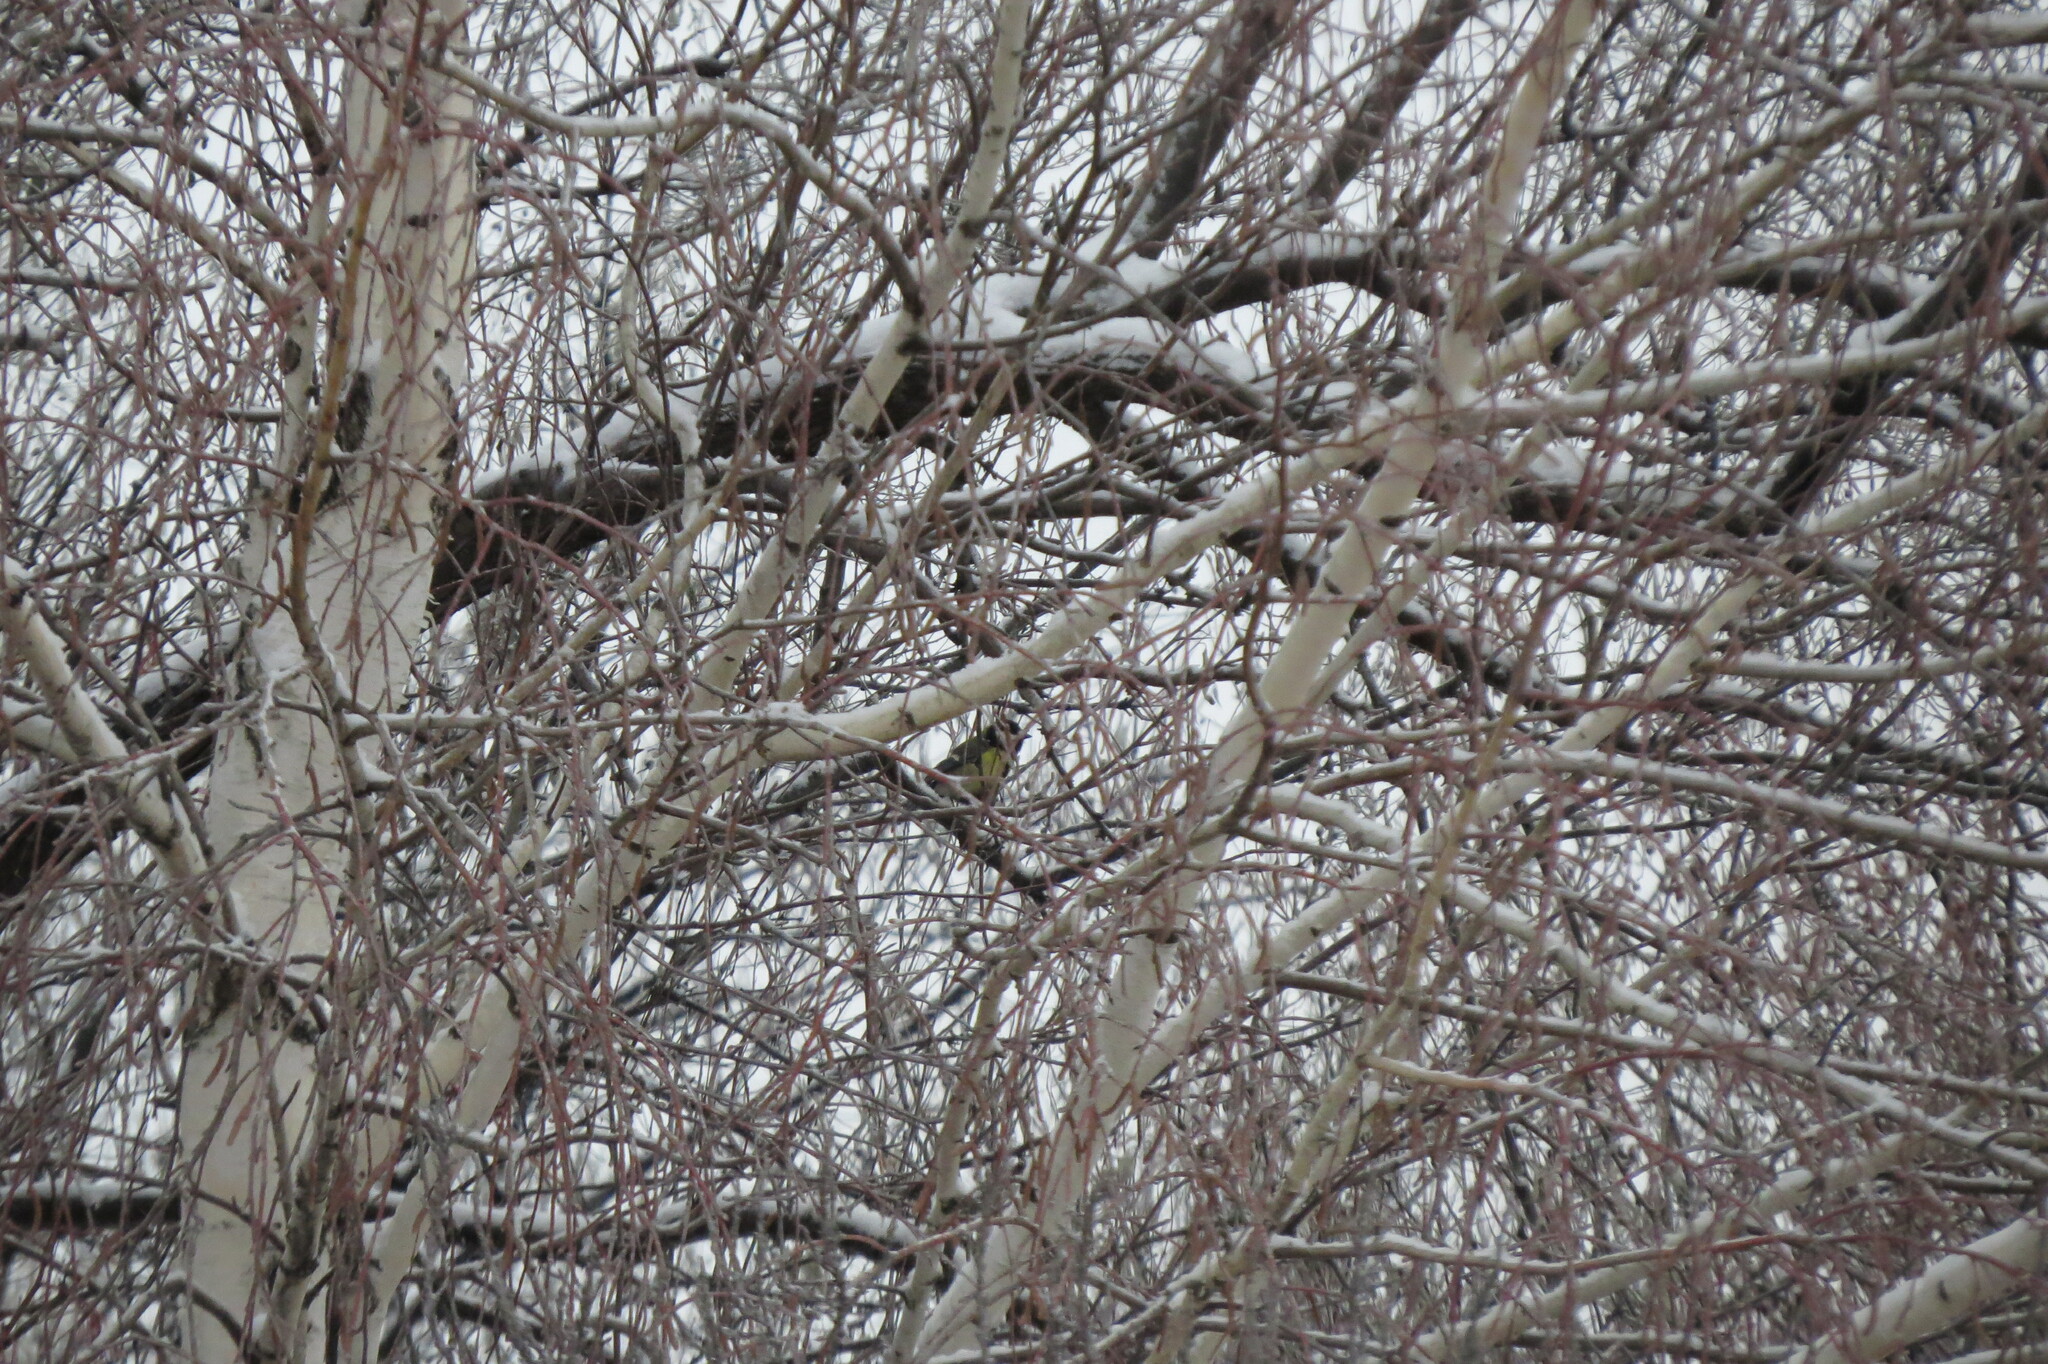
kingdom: Animalia
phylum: Chordata
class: Aves
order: Passeriformes
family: Paridae
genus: Parus
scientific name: Parus major
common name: Great tit
